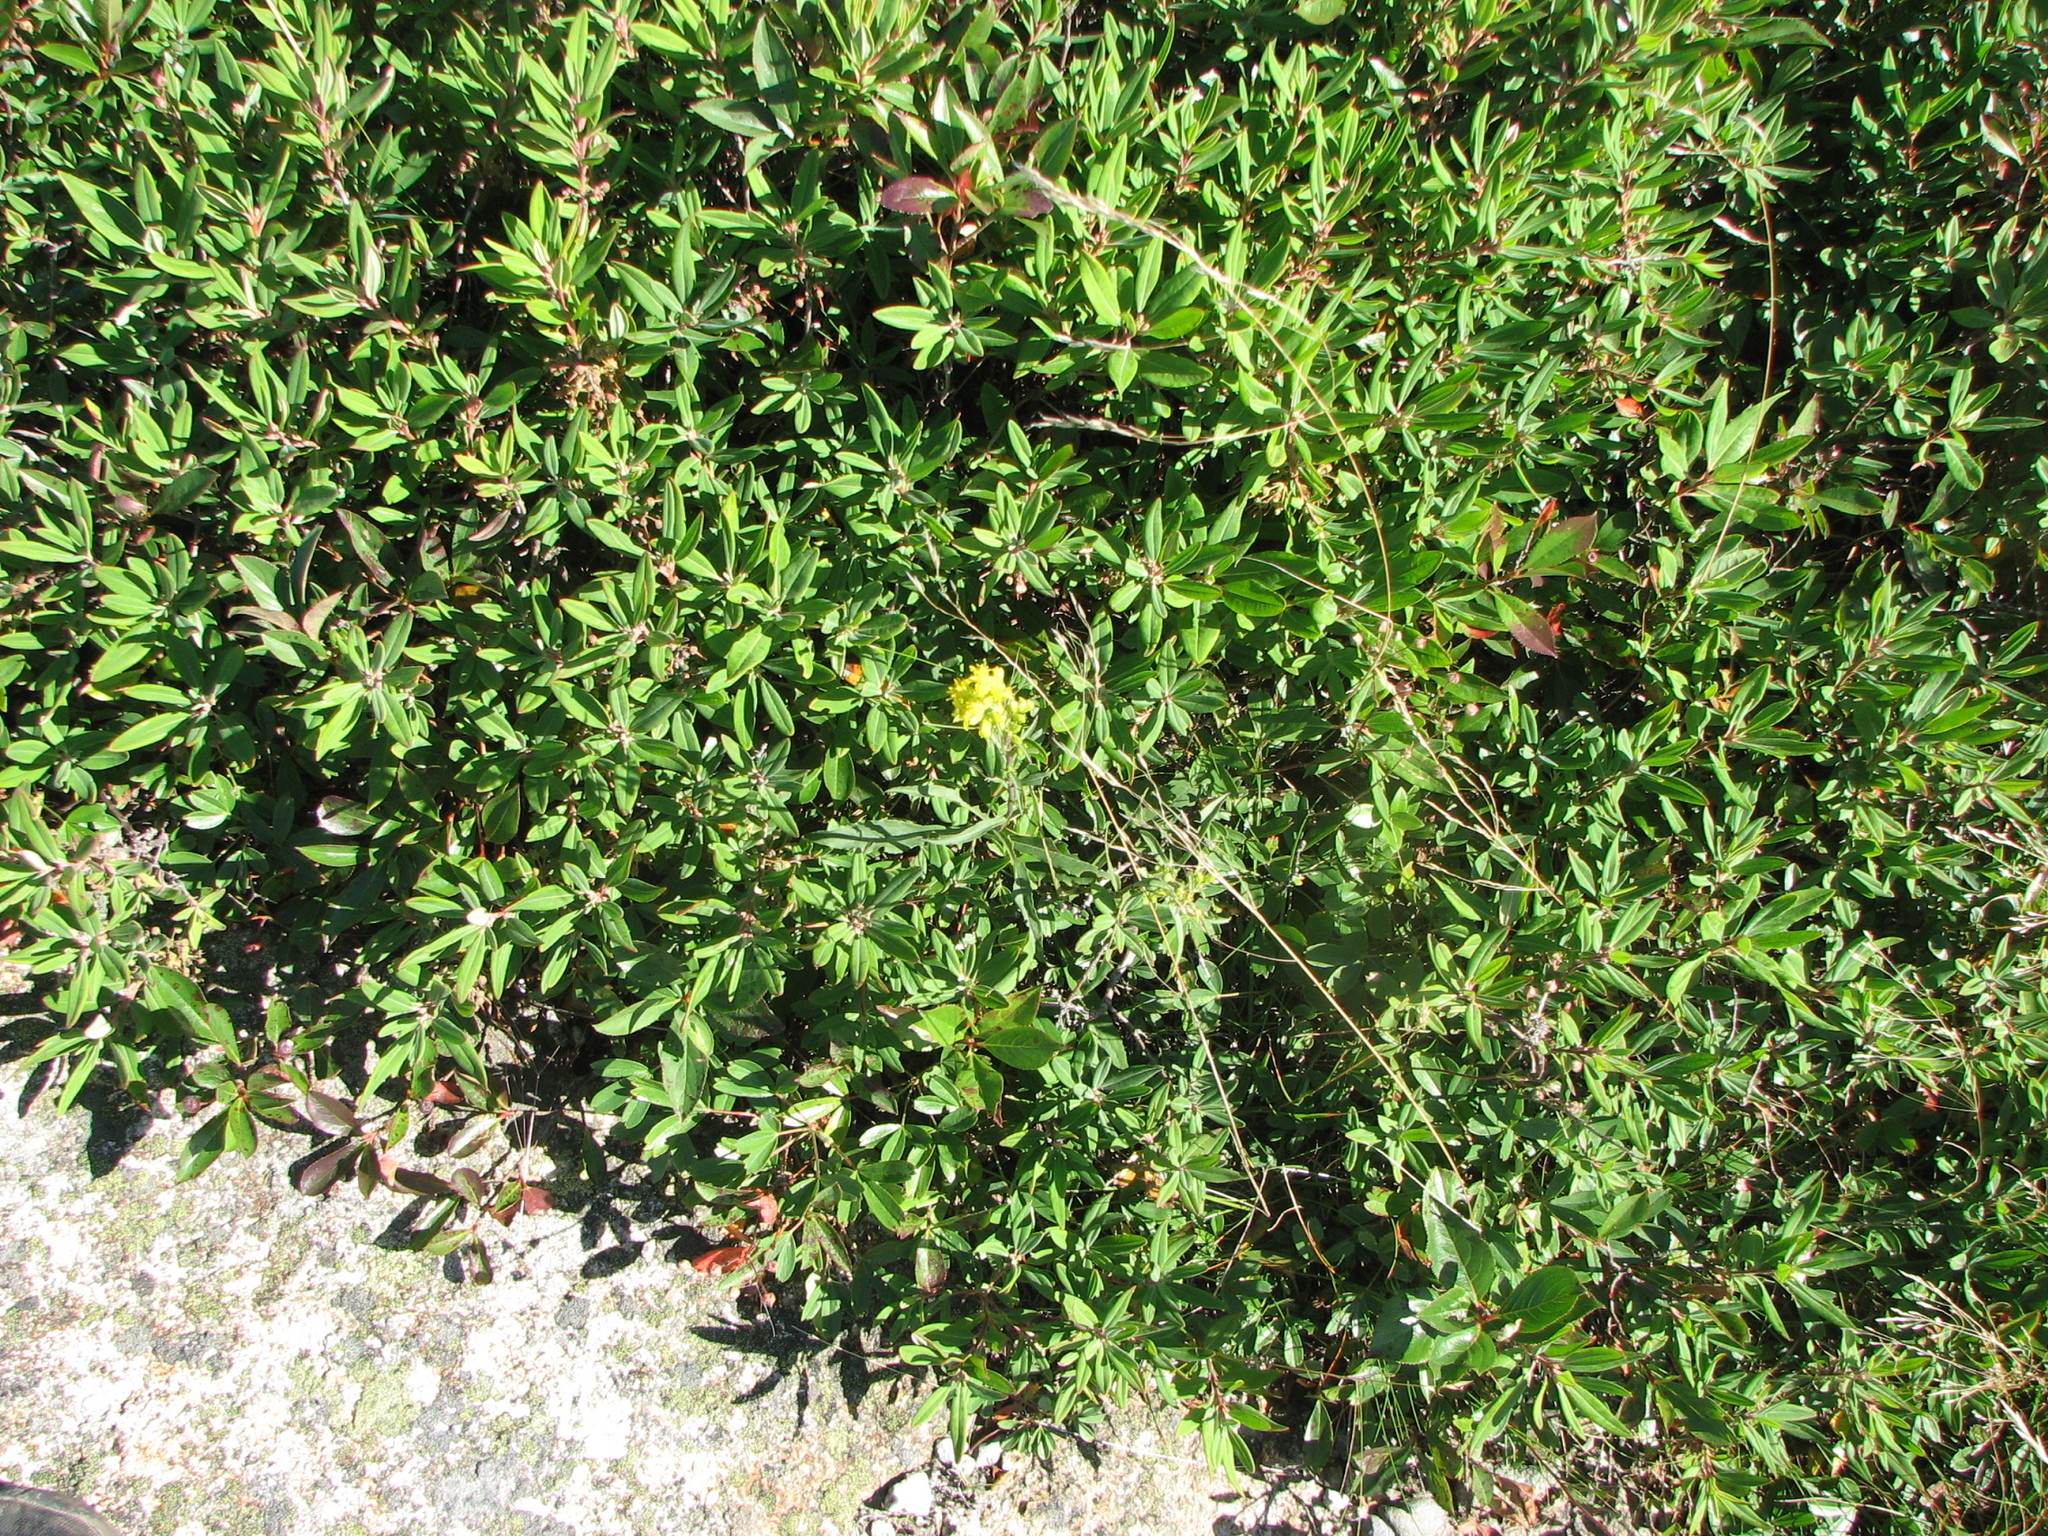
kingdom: Plantae
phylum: Tracheophyta
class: Magnoliopsida
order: Asterales
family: Asteraceae
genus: Solidago
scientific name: Solidago puberula
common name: Downy goldenrod
